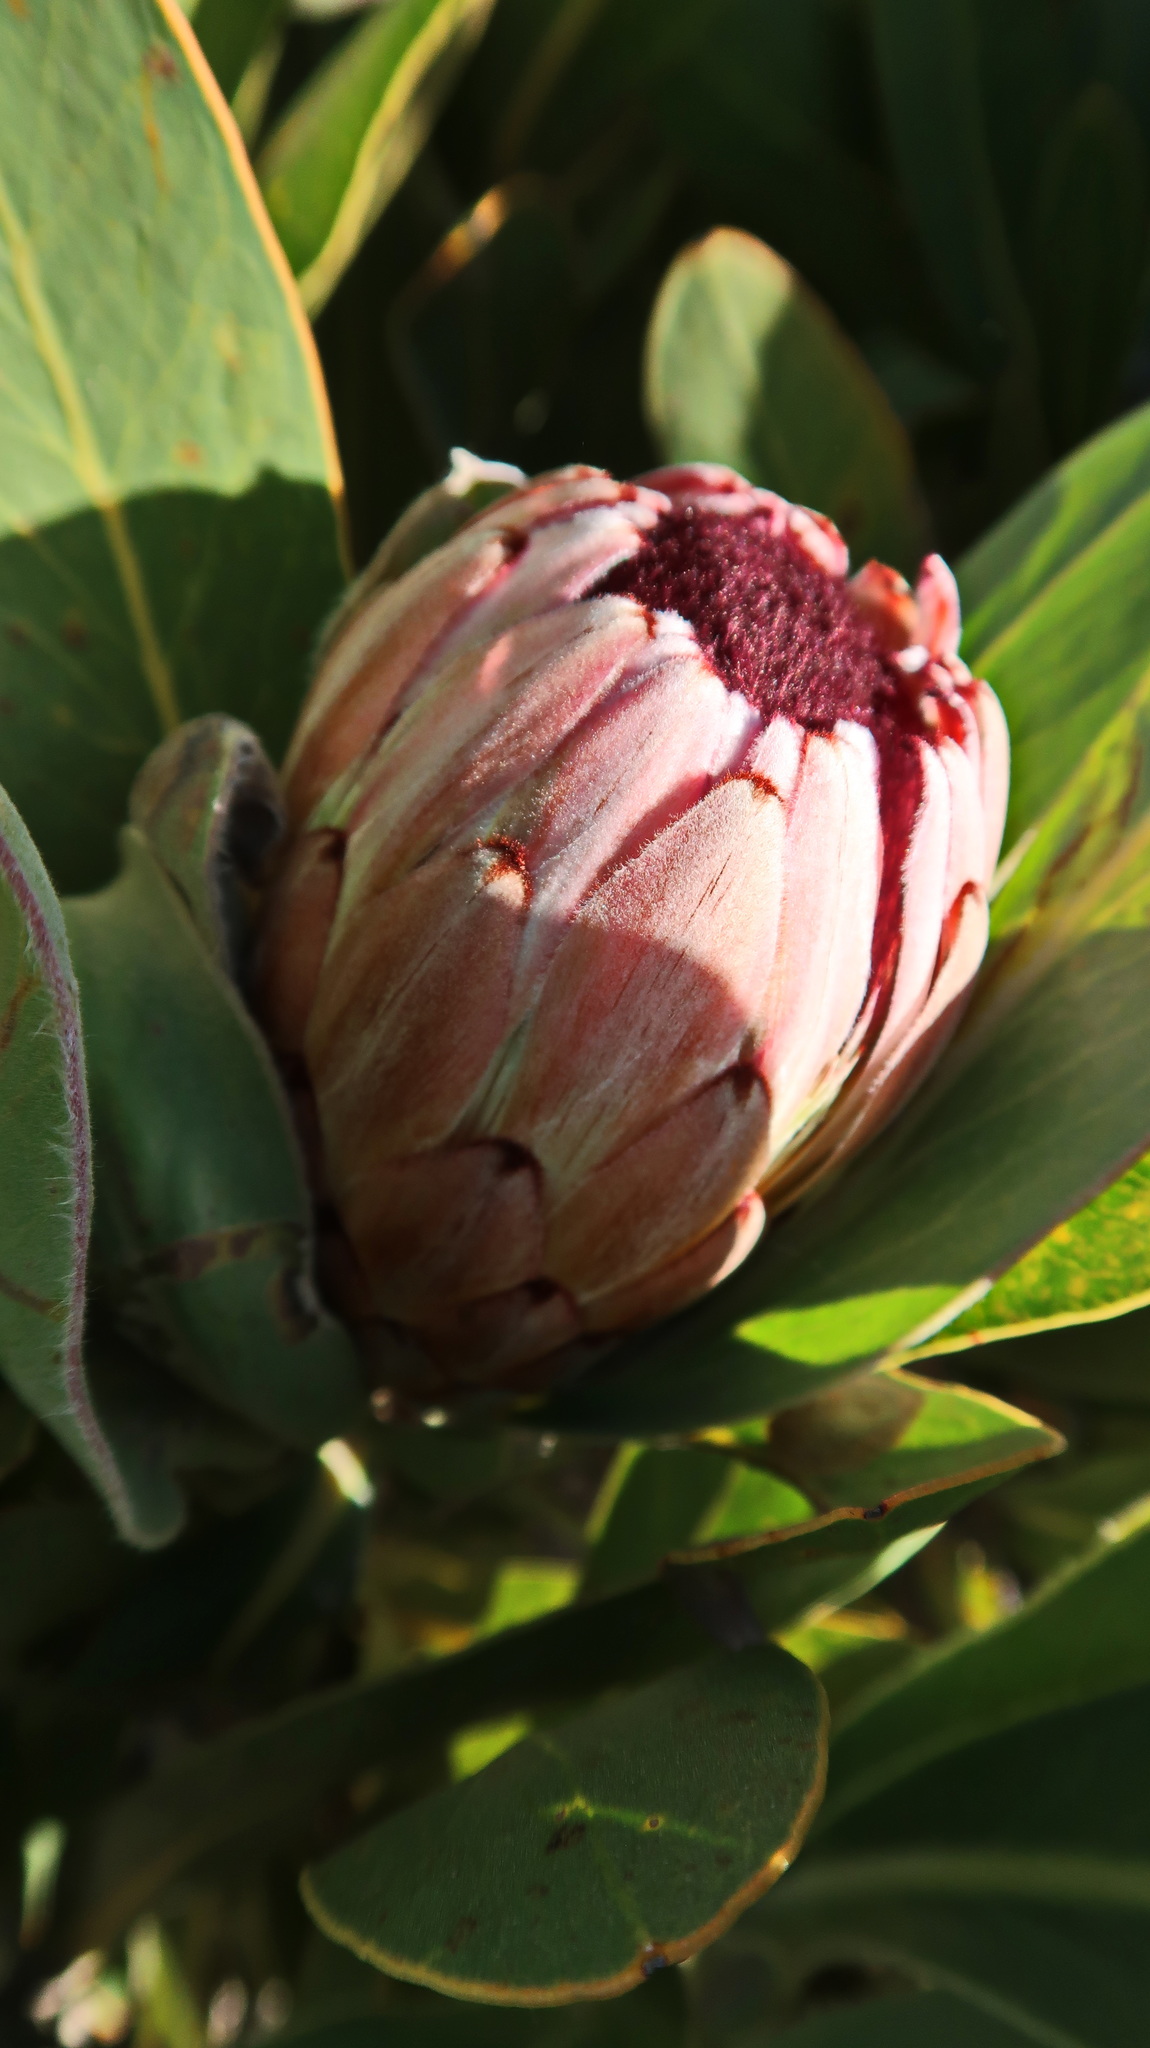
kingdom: Plantae
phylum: Tracheophyta
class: Magnoliopsida
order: Proteales
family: Proteaceae
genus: Protea
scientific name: Protea lorifolia
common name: Strap-leaved protea
